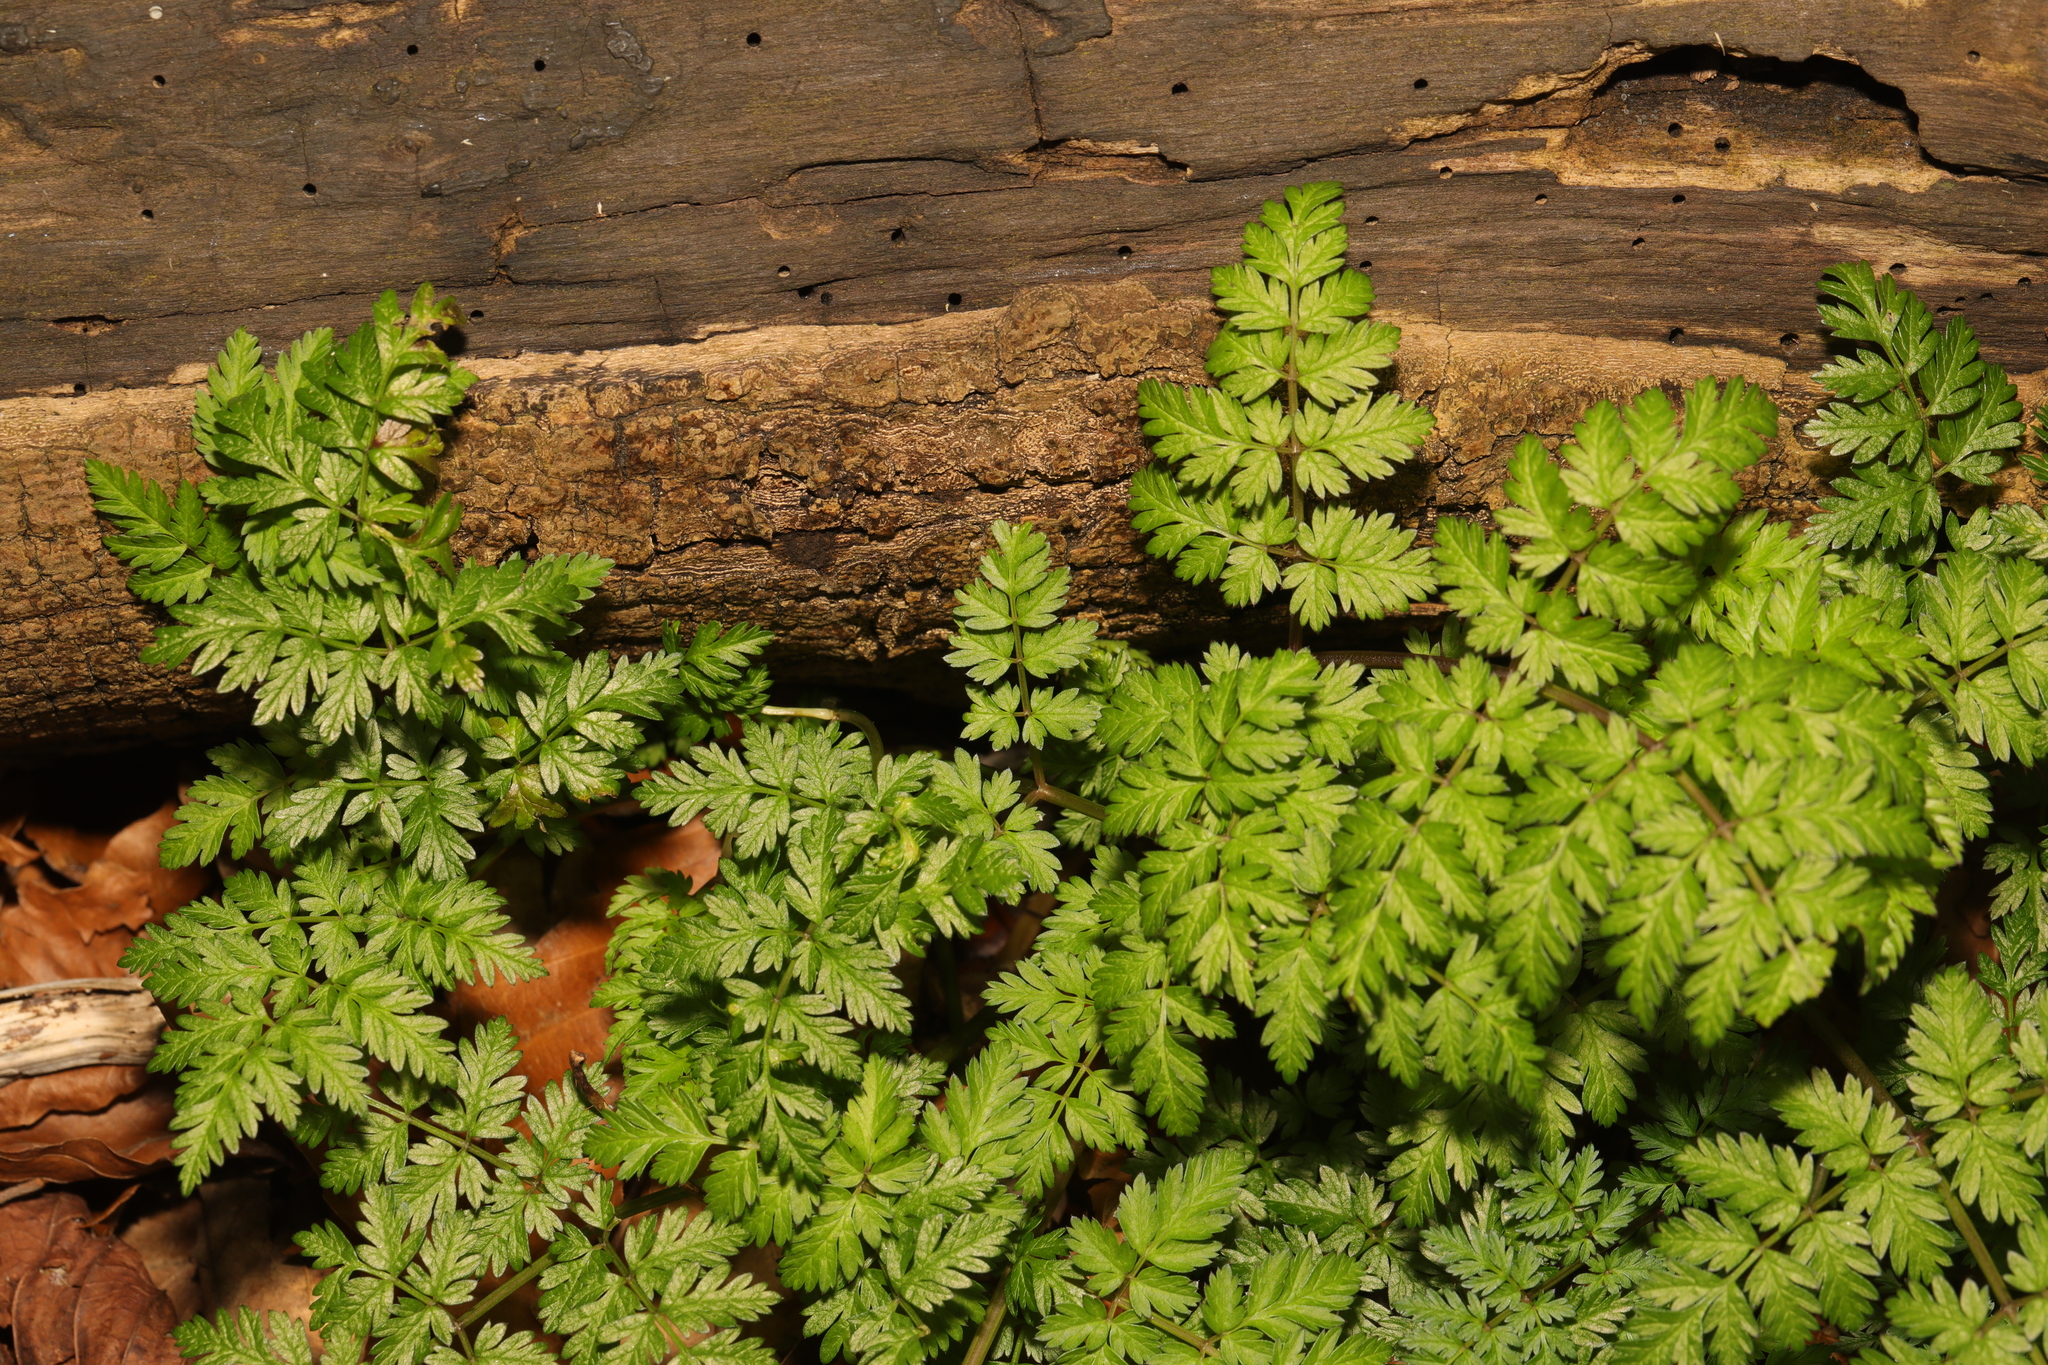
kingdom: Plantae
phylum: Tracheophyta
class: Magnoliopsida
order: Apiales
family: Apiaceae
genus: Anthriscus
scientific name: Anthriscus sylvestris
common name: Cow parsley
